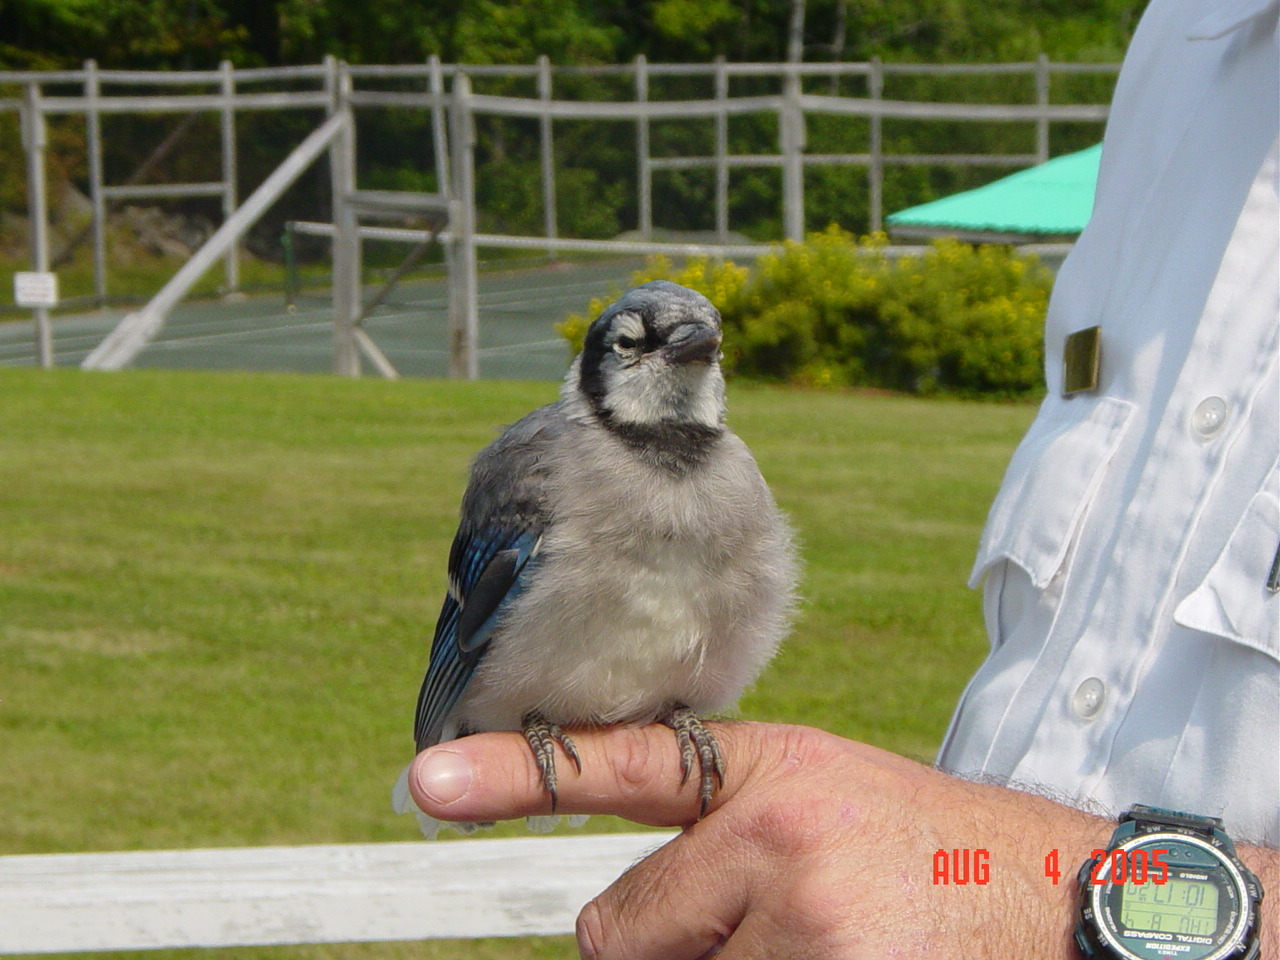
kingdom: Animalia
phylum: Chordata
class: Aves
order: Passeriformes
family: Corvidae
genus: Cyanocitta
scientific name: Cyanocitta cristata
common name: Blue jay
